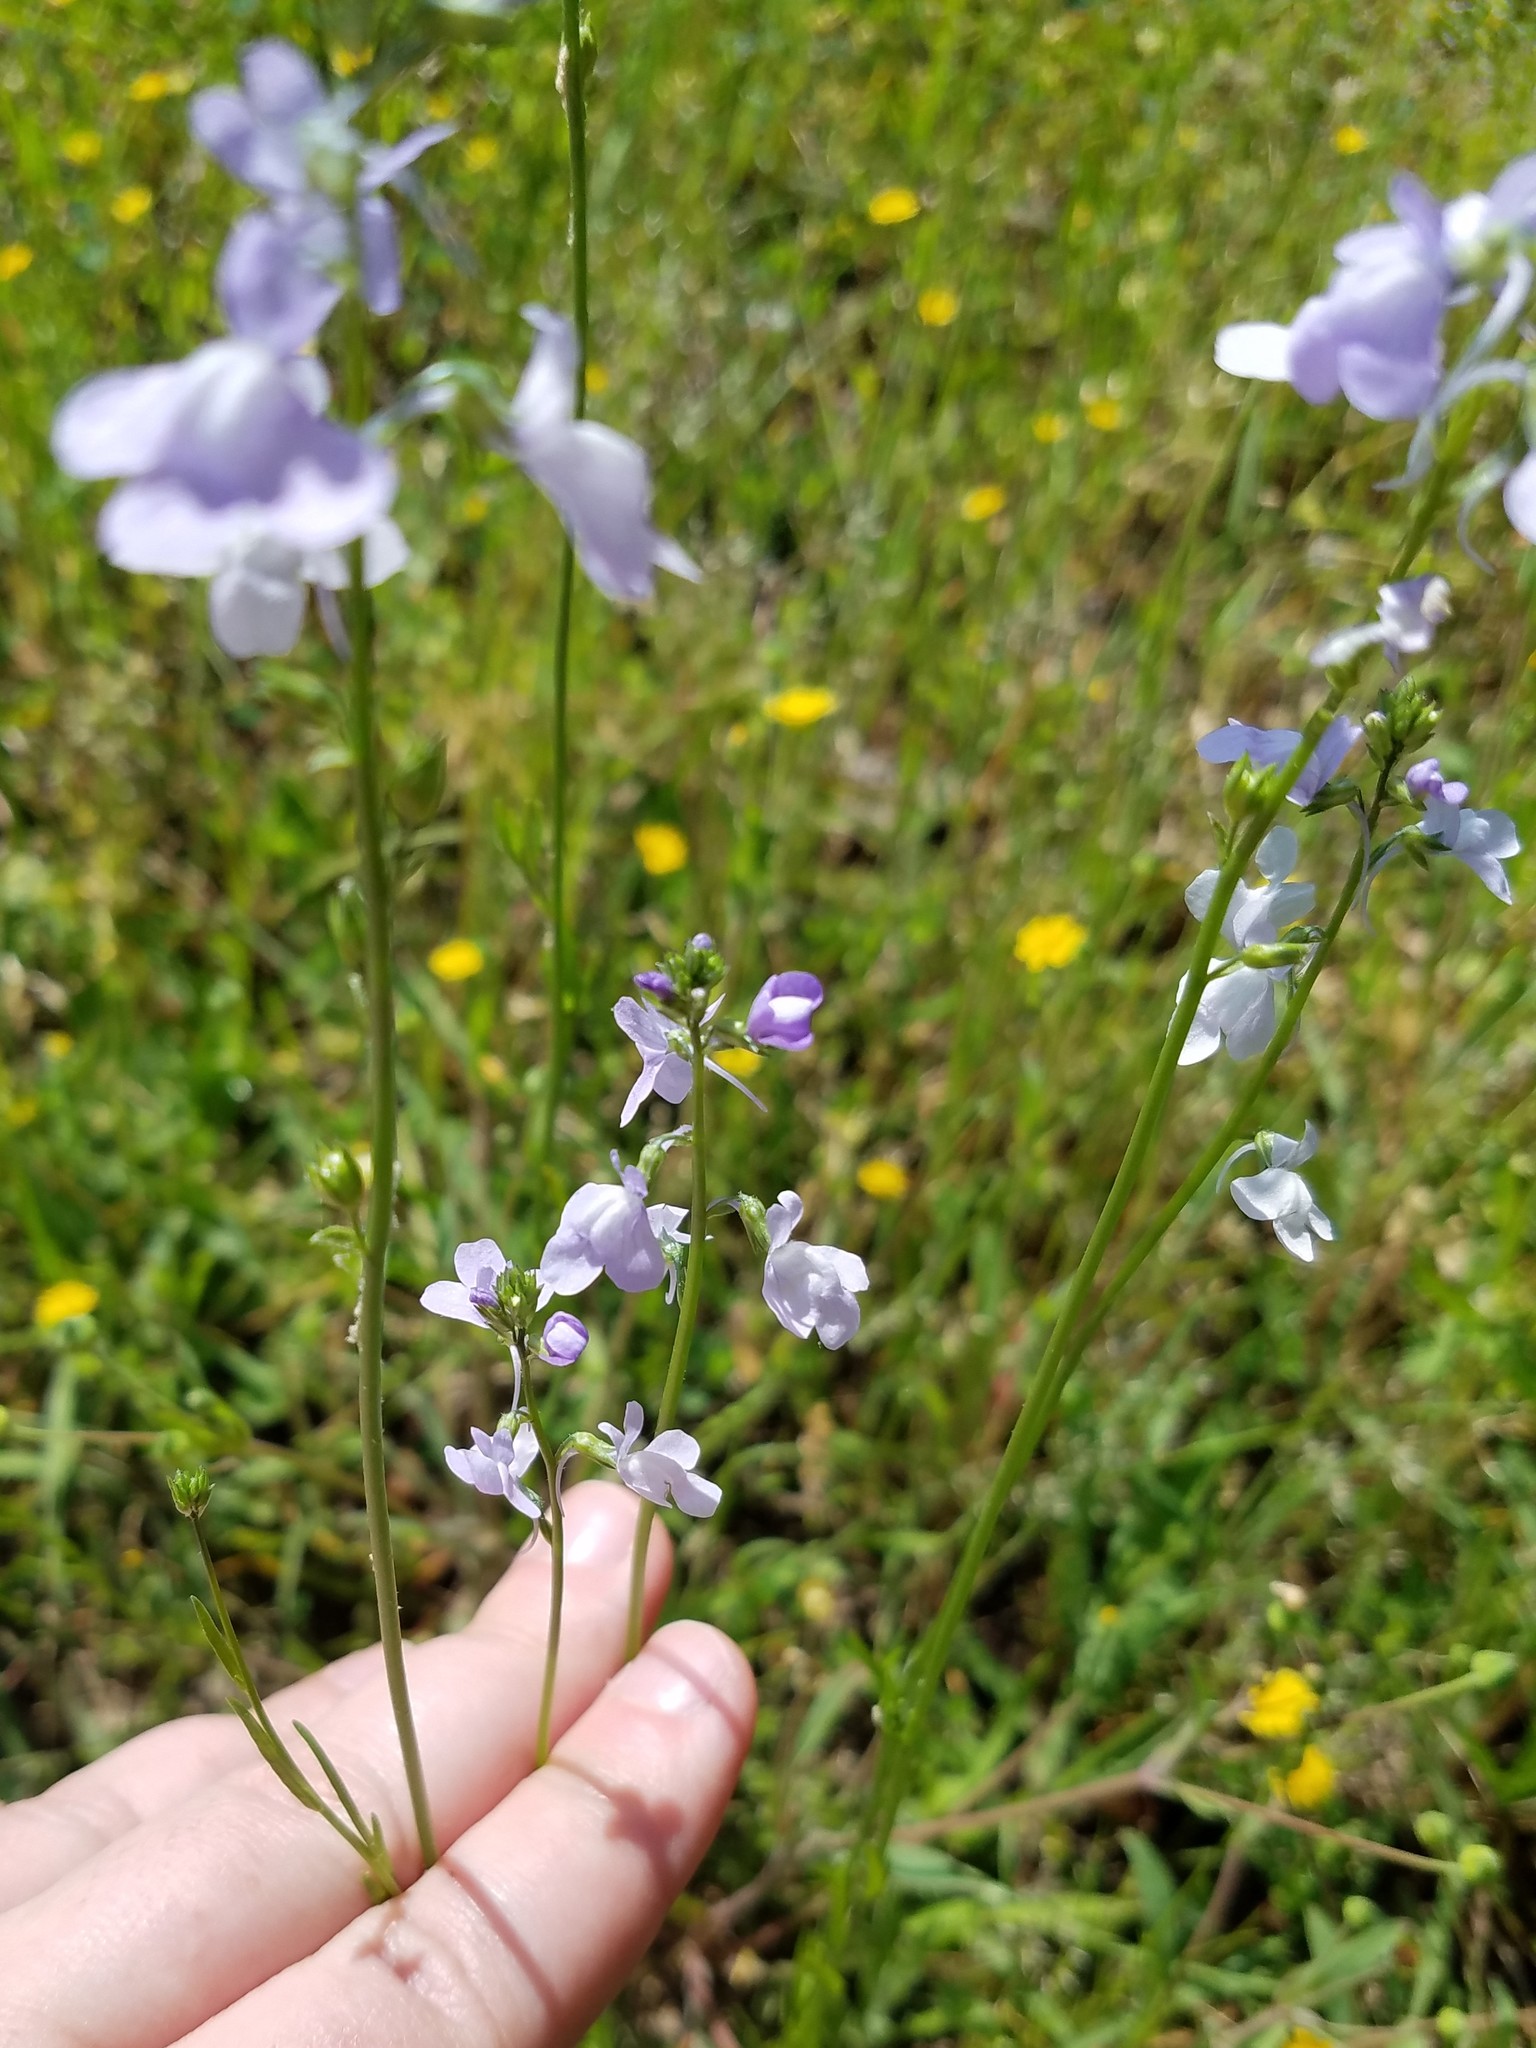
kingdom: Plantae
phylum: Tracheophyta
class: Magnoliopsida
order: Lamiales
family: Plantaginaceae
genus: Nuttallanthus
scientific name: Nuttallanthus texanus
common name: Texas toadflax
